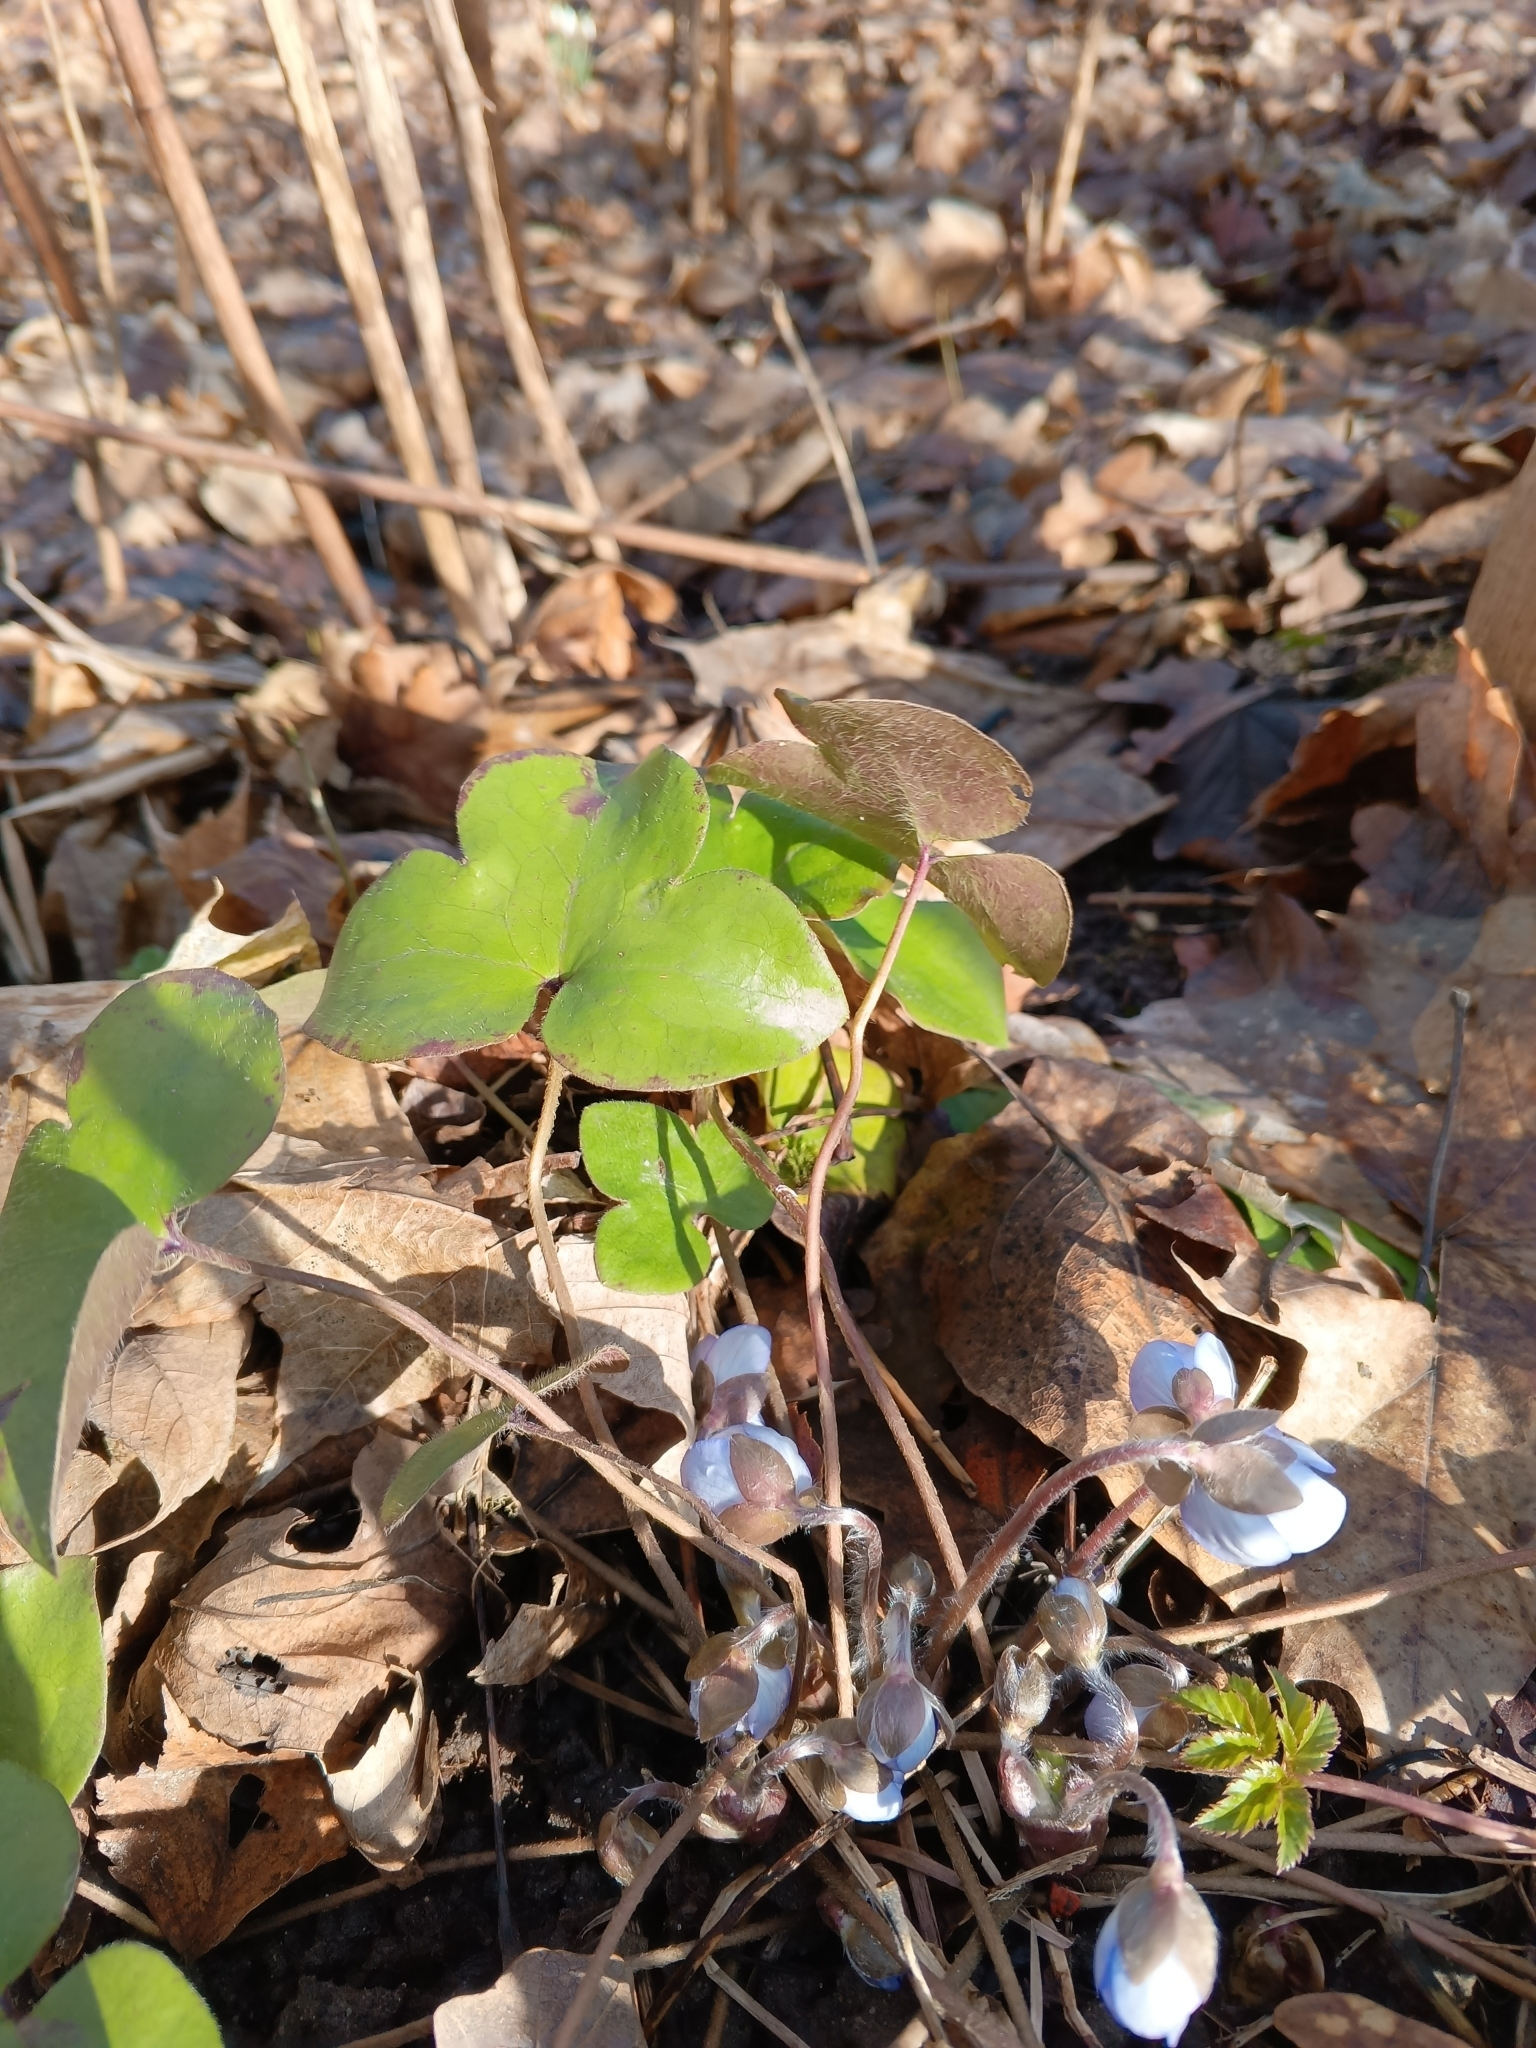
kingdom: Plantae
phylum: Tracheophyta
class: Magnoliopsida
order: Ranunculales
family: Ranunculaceae
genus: Hepatica
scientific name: Hepatica nobilis
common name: Liverleaf
